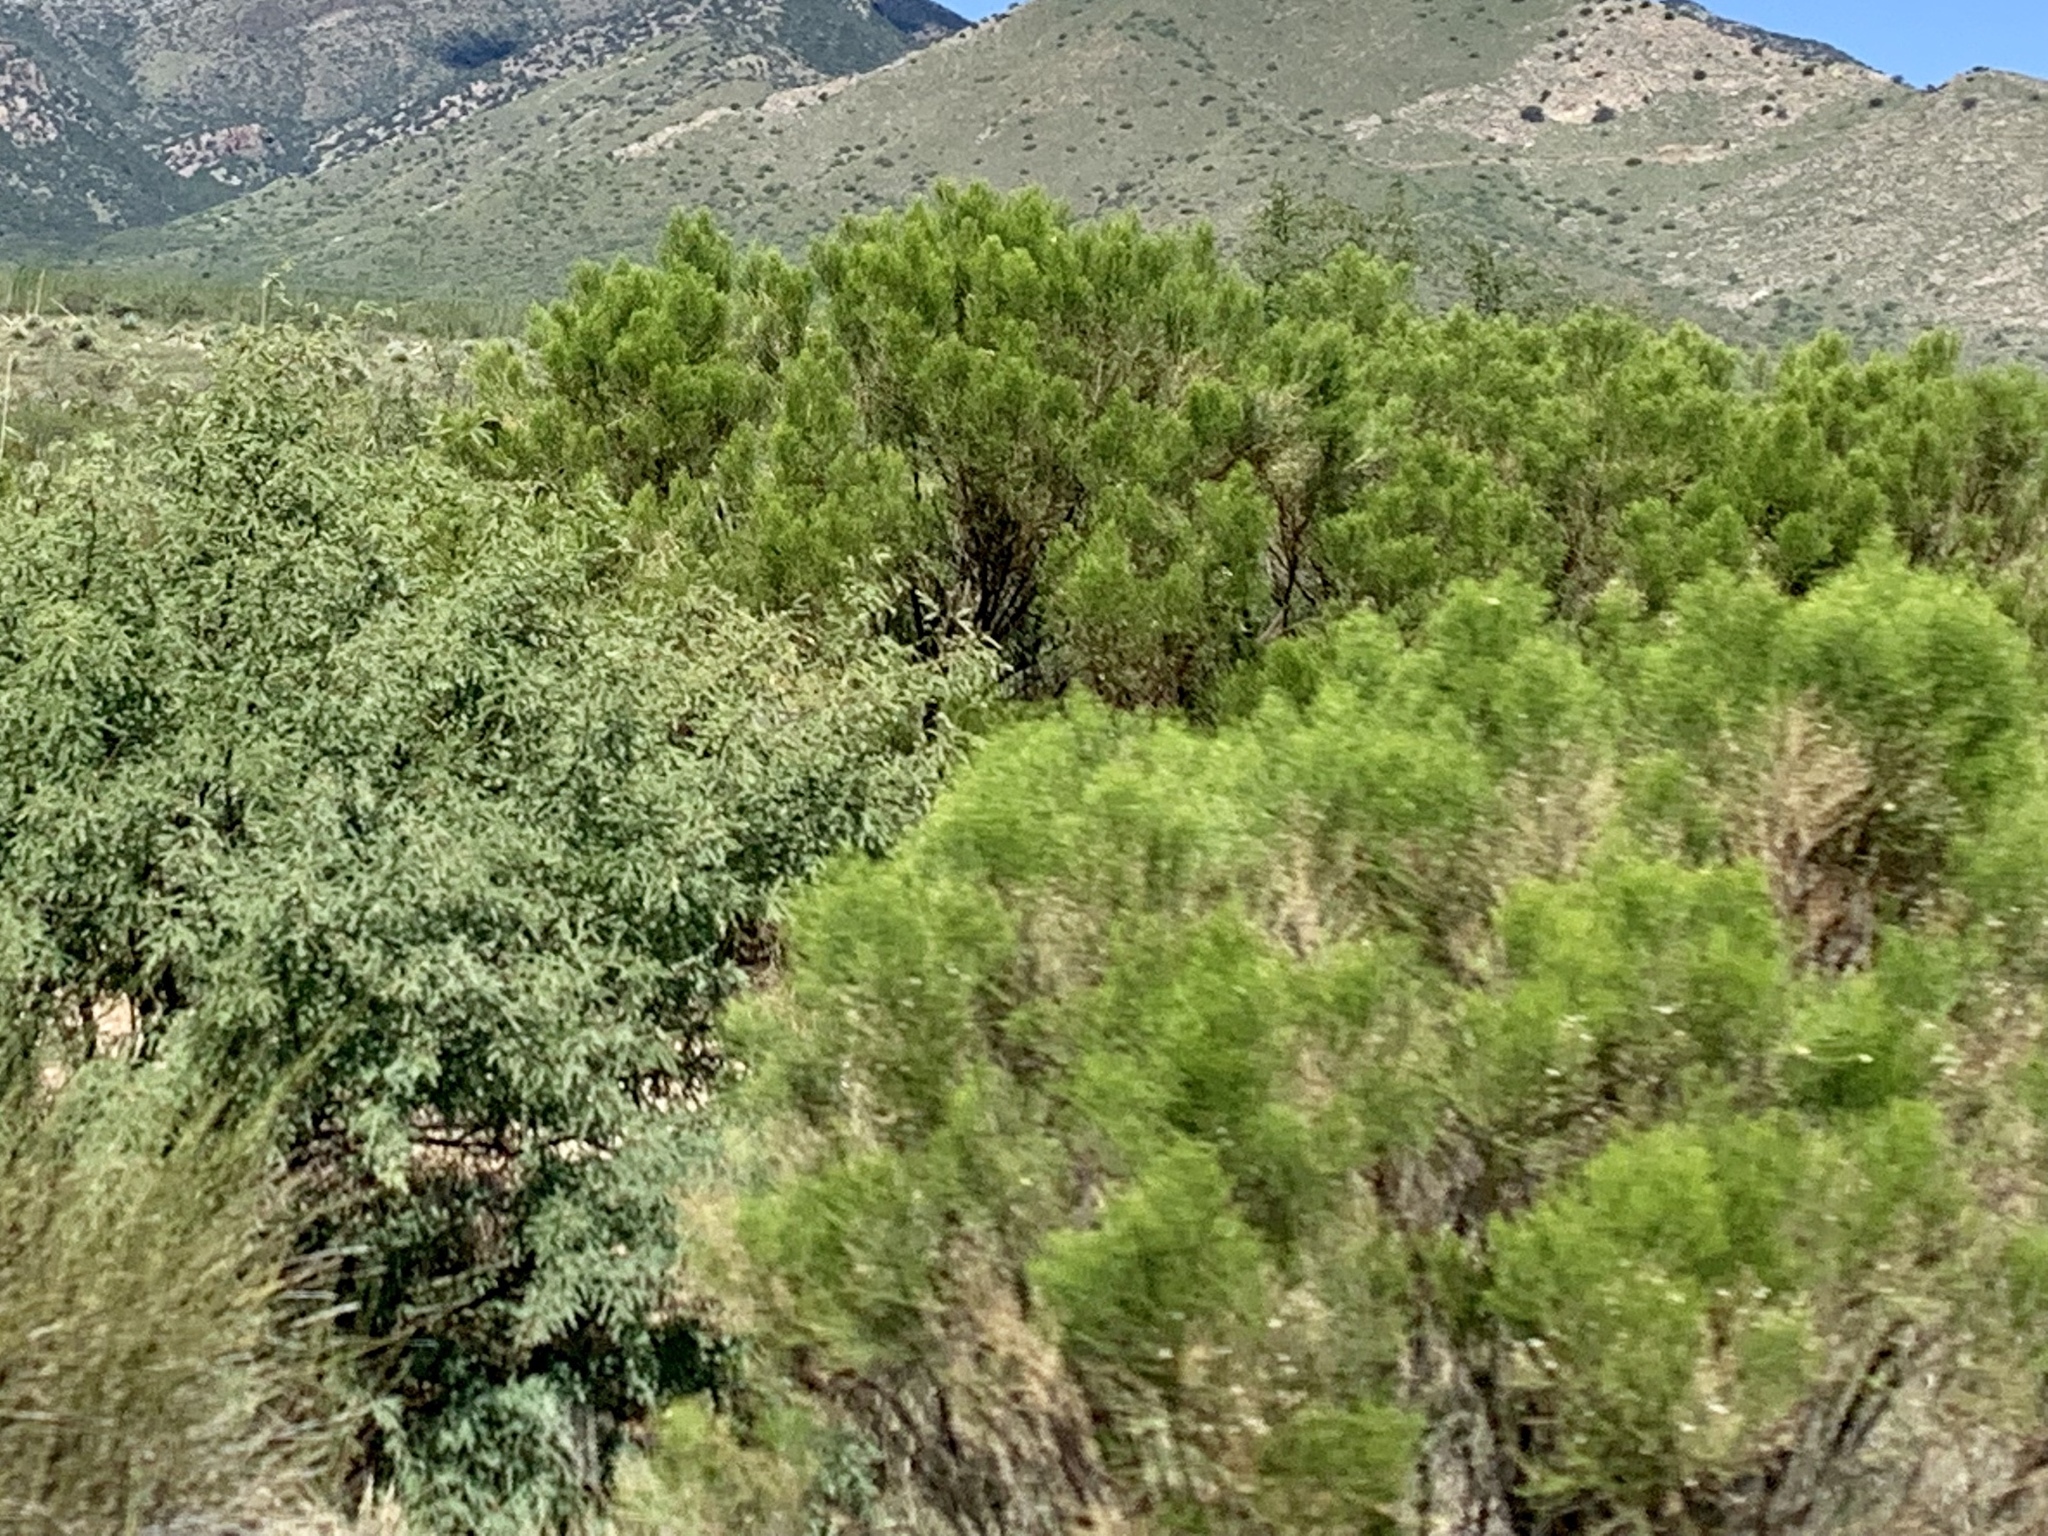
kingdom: Plantae
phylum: Tracheophyta
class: Magnoliopsida
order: Asterales
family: Asteraceae
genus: Baccharis
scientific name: Baccharis sarothroides
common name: Desert-broom
